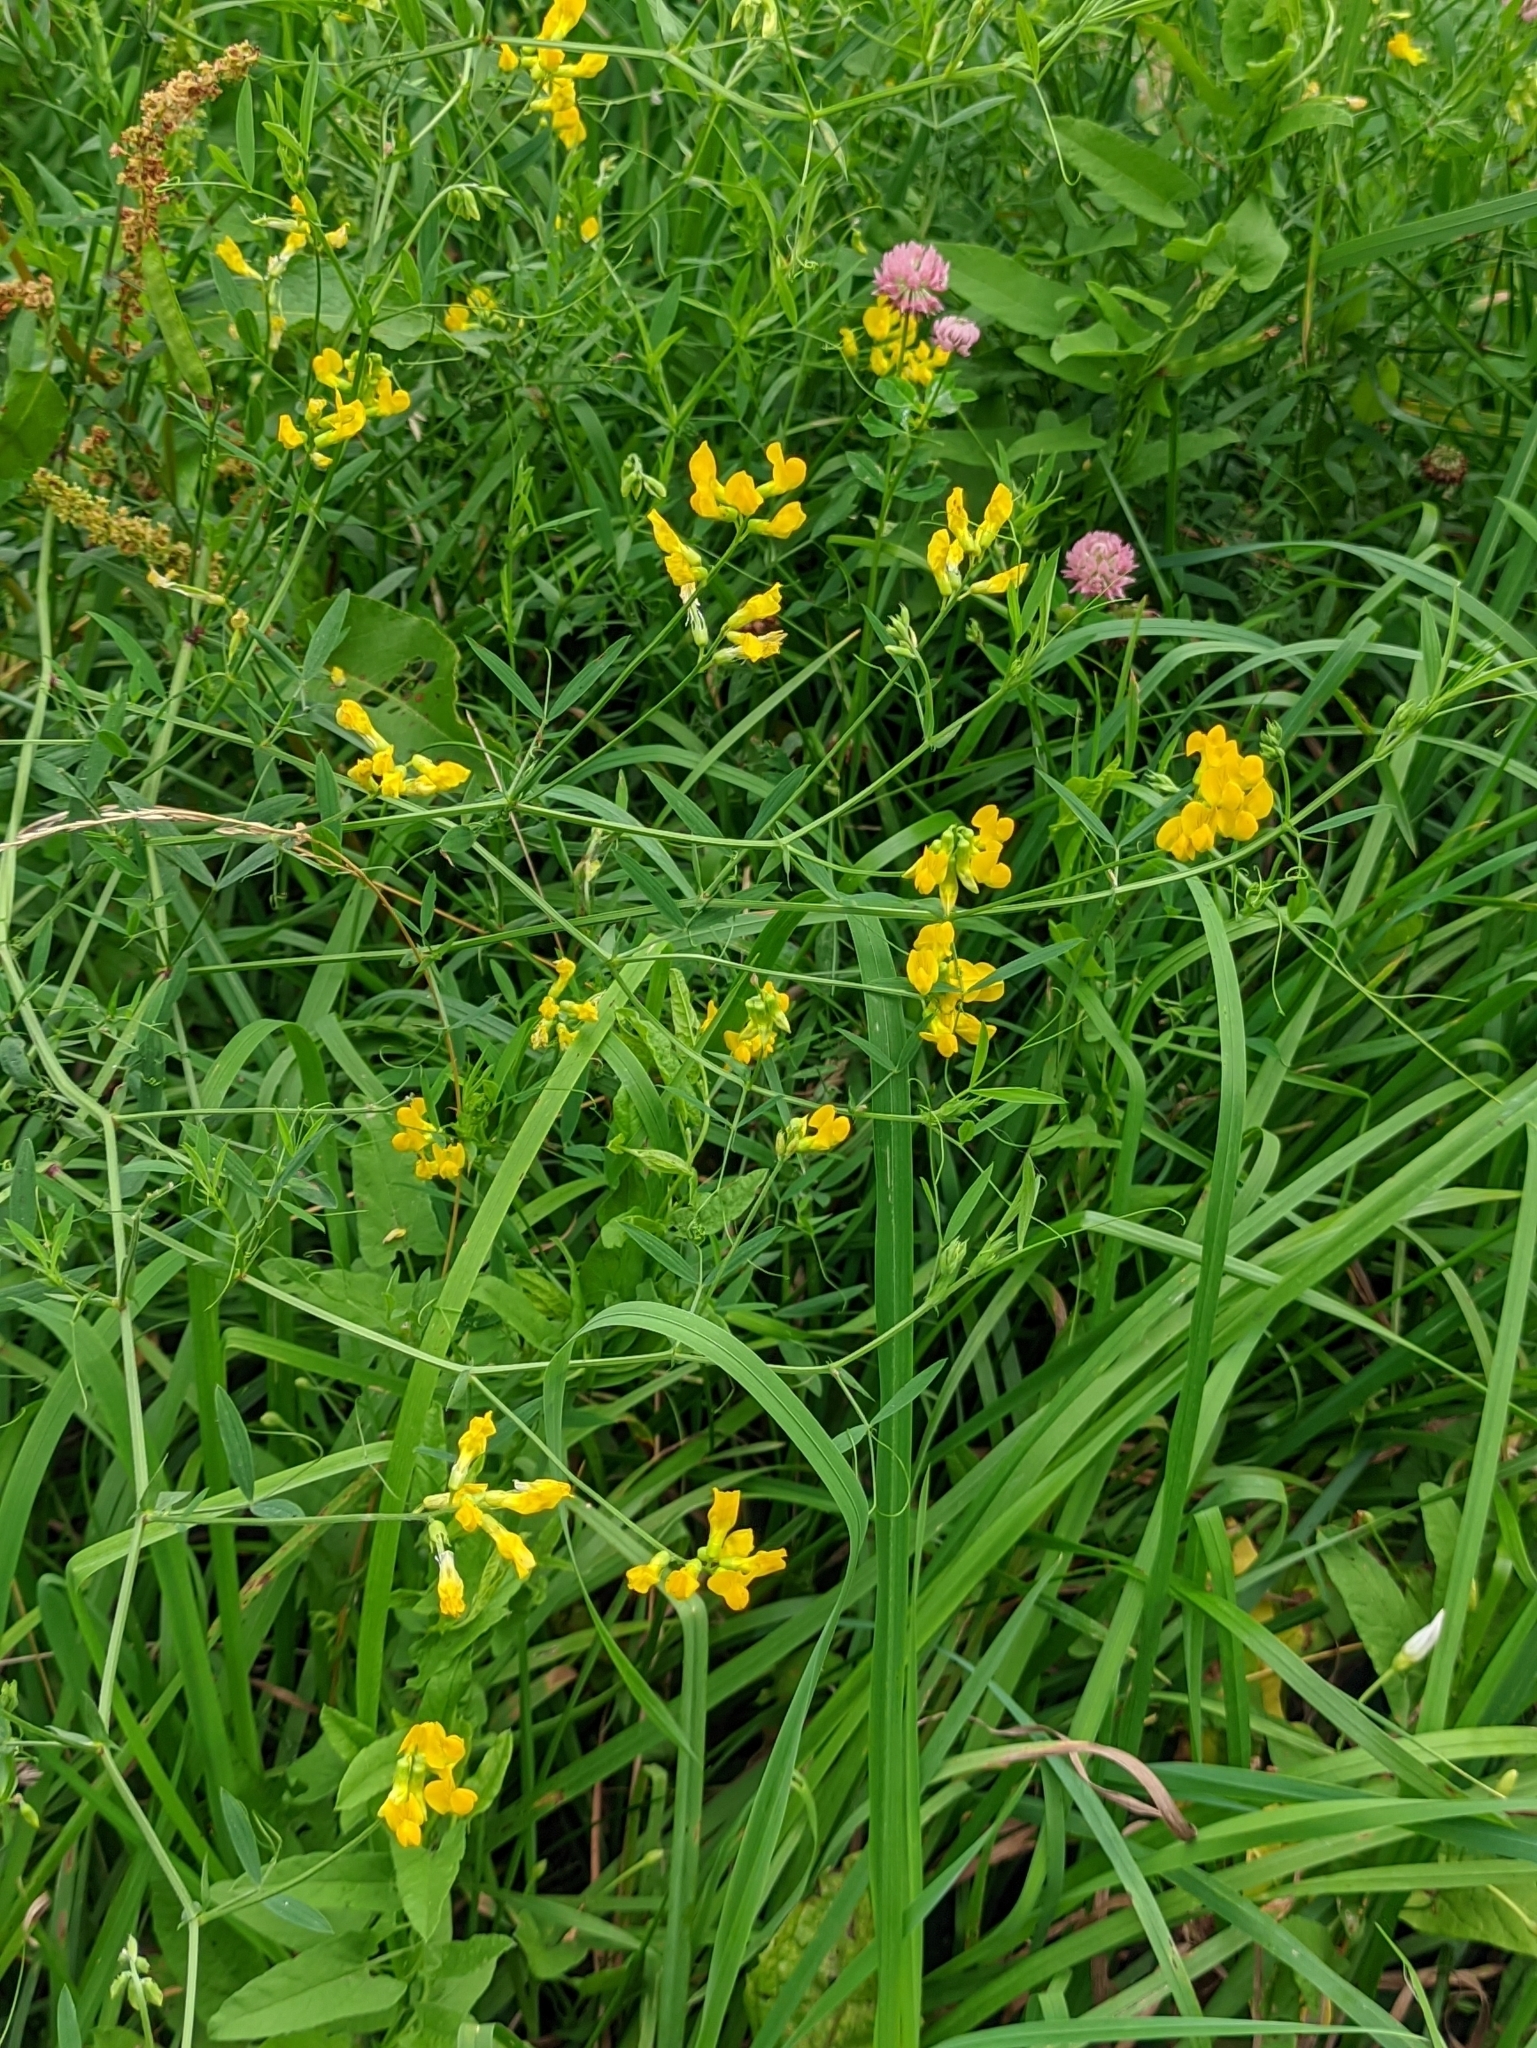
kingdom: Plantae
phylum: Tracheophyta
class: Magnoliopsida
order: Fabales
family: Fabaceae
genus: Lathyrus
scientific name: Lathyrus pratensis
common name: Meadow vetchling
